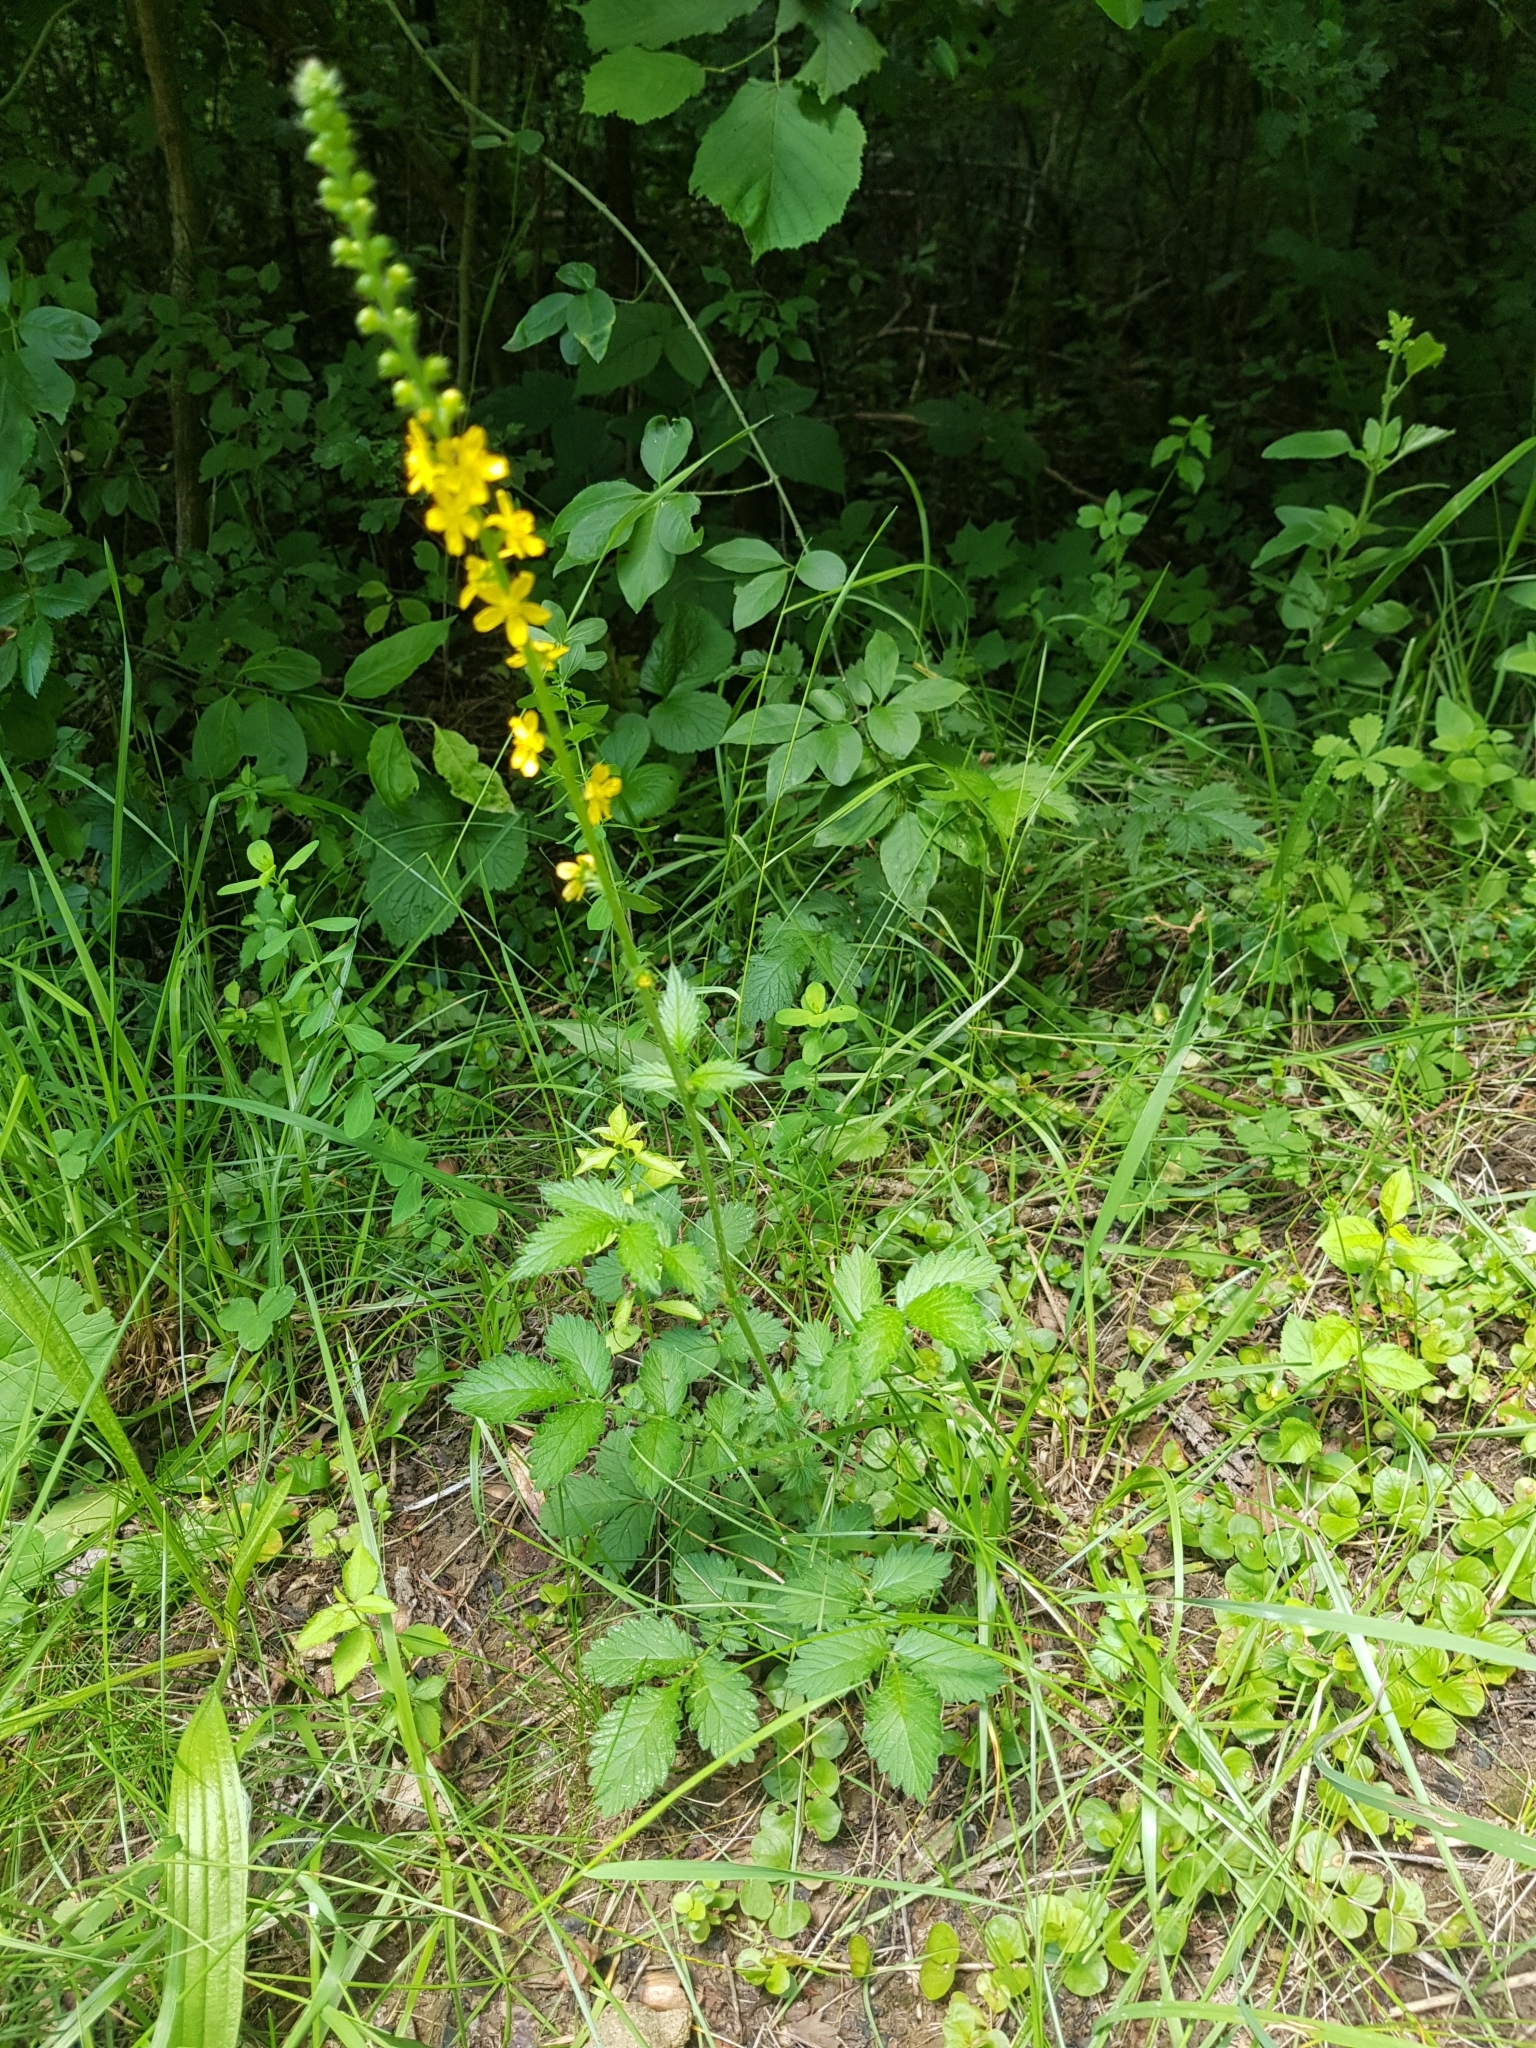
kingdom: Plantae
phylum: Tracheophyta
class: Magnoliopsida
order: Rosales
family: Rosaceae
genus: Agrimonia
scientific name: Agrimonia eupatoria
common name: Agrimony
